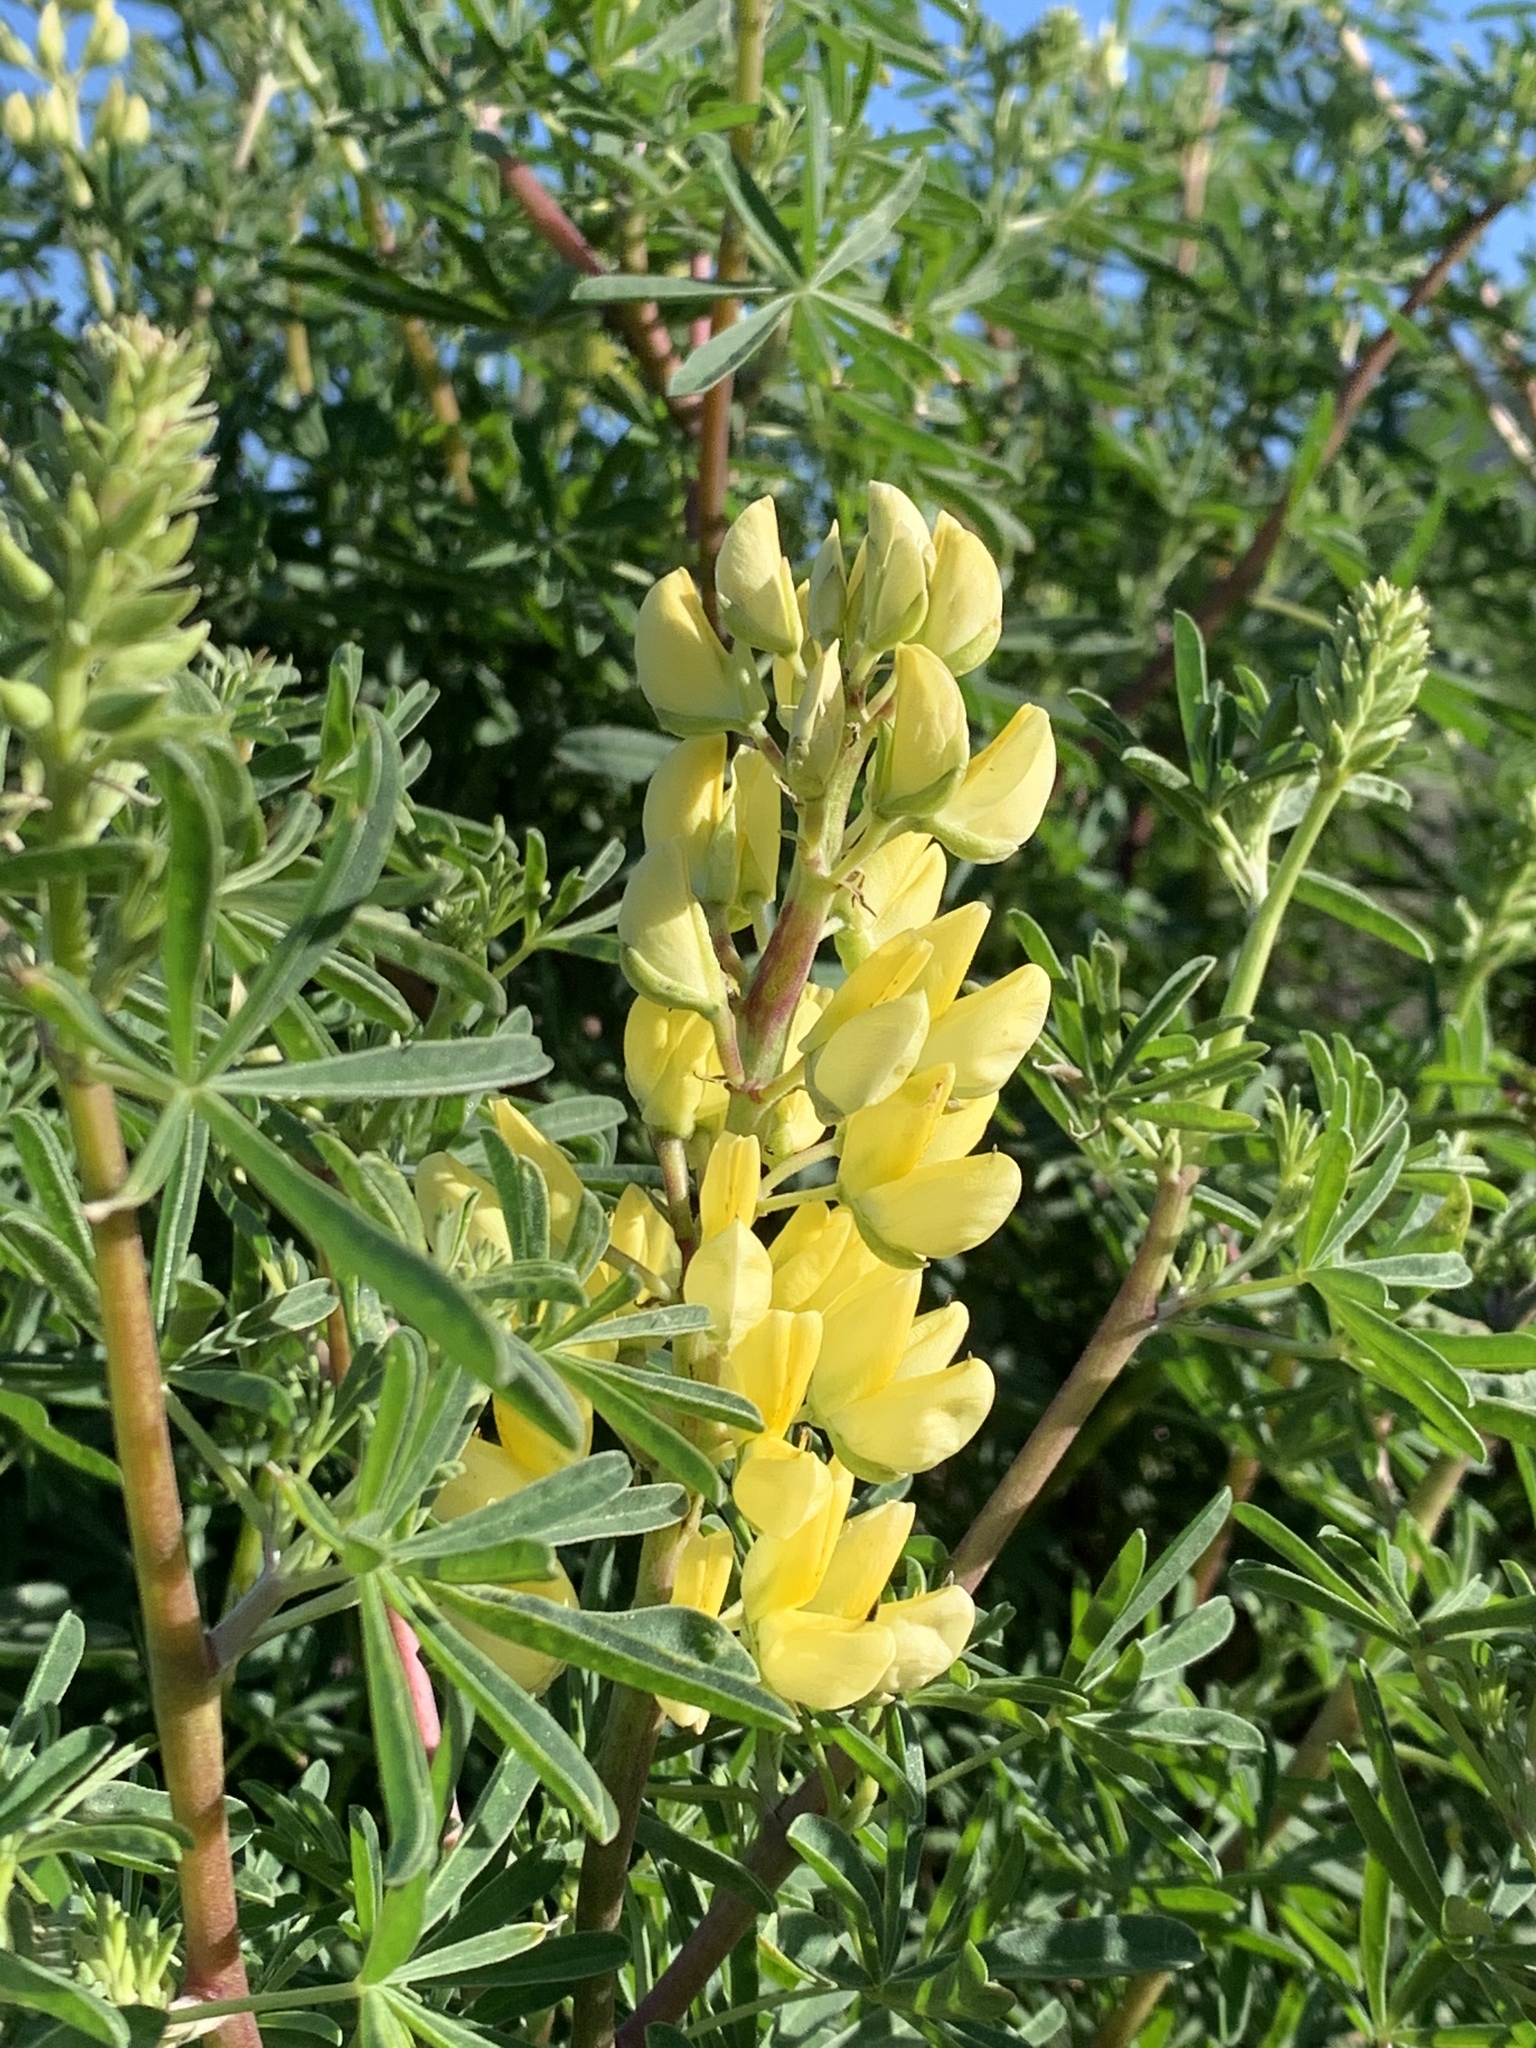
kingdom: Plantae
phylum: Tracheophyta
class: Magnoliopsida
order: Fabales
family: Fabaceae
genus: Lupinus
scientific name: Lupinus arboreus
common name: Yellow bush lupine
